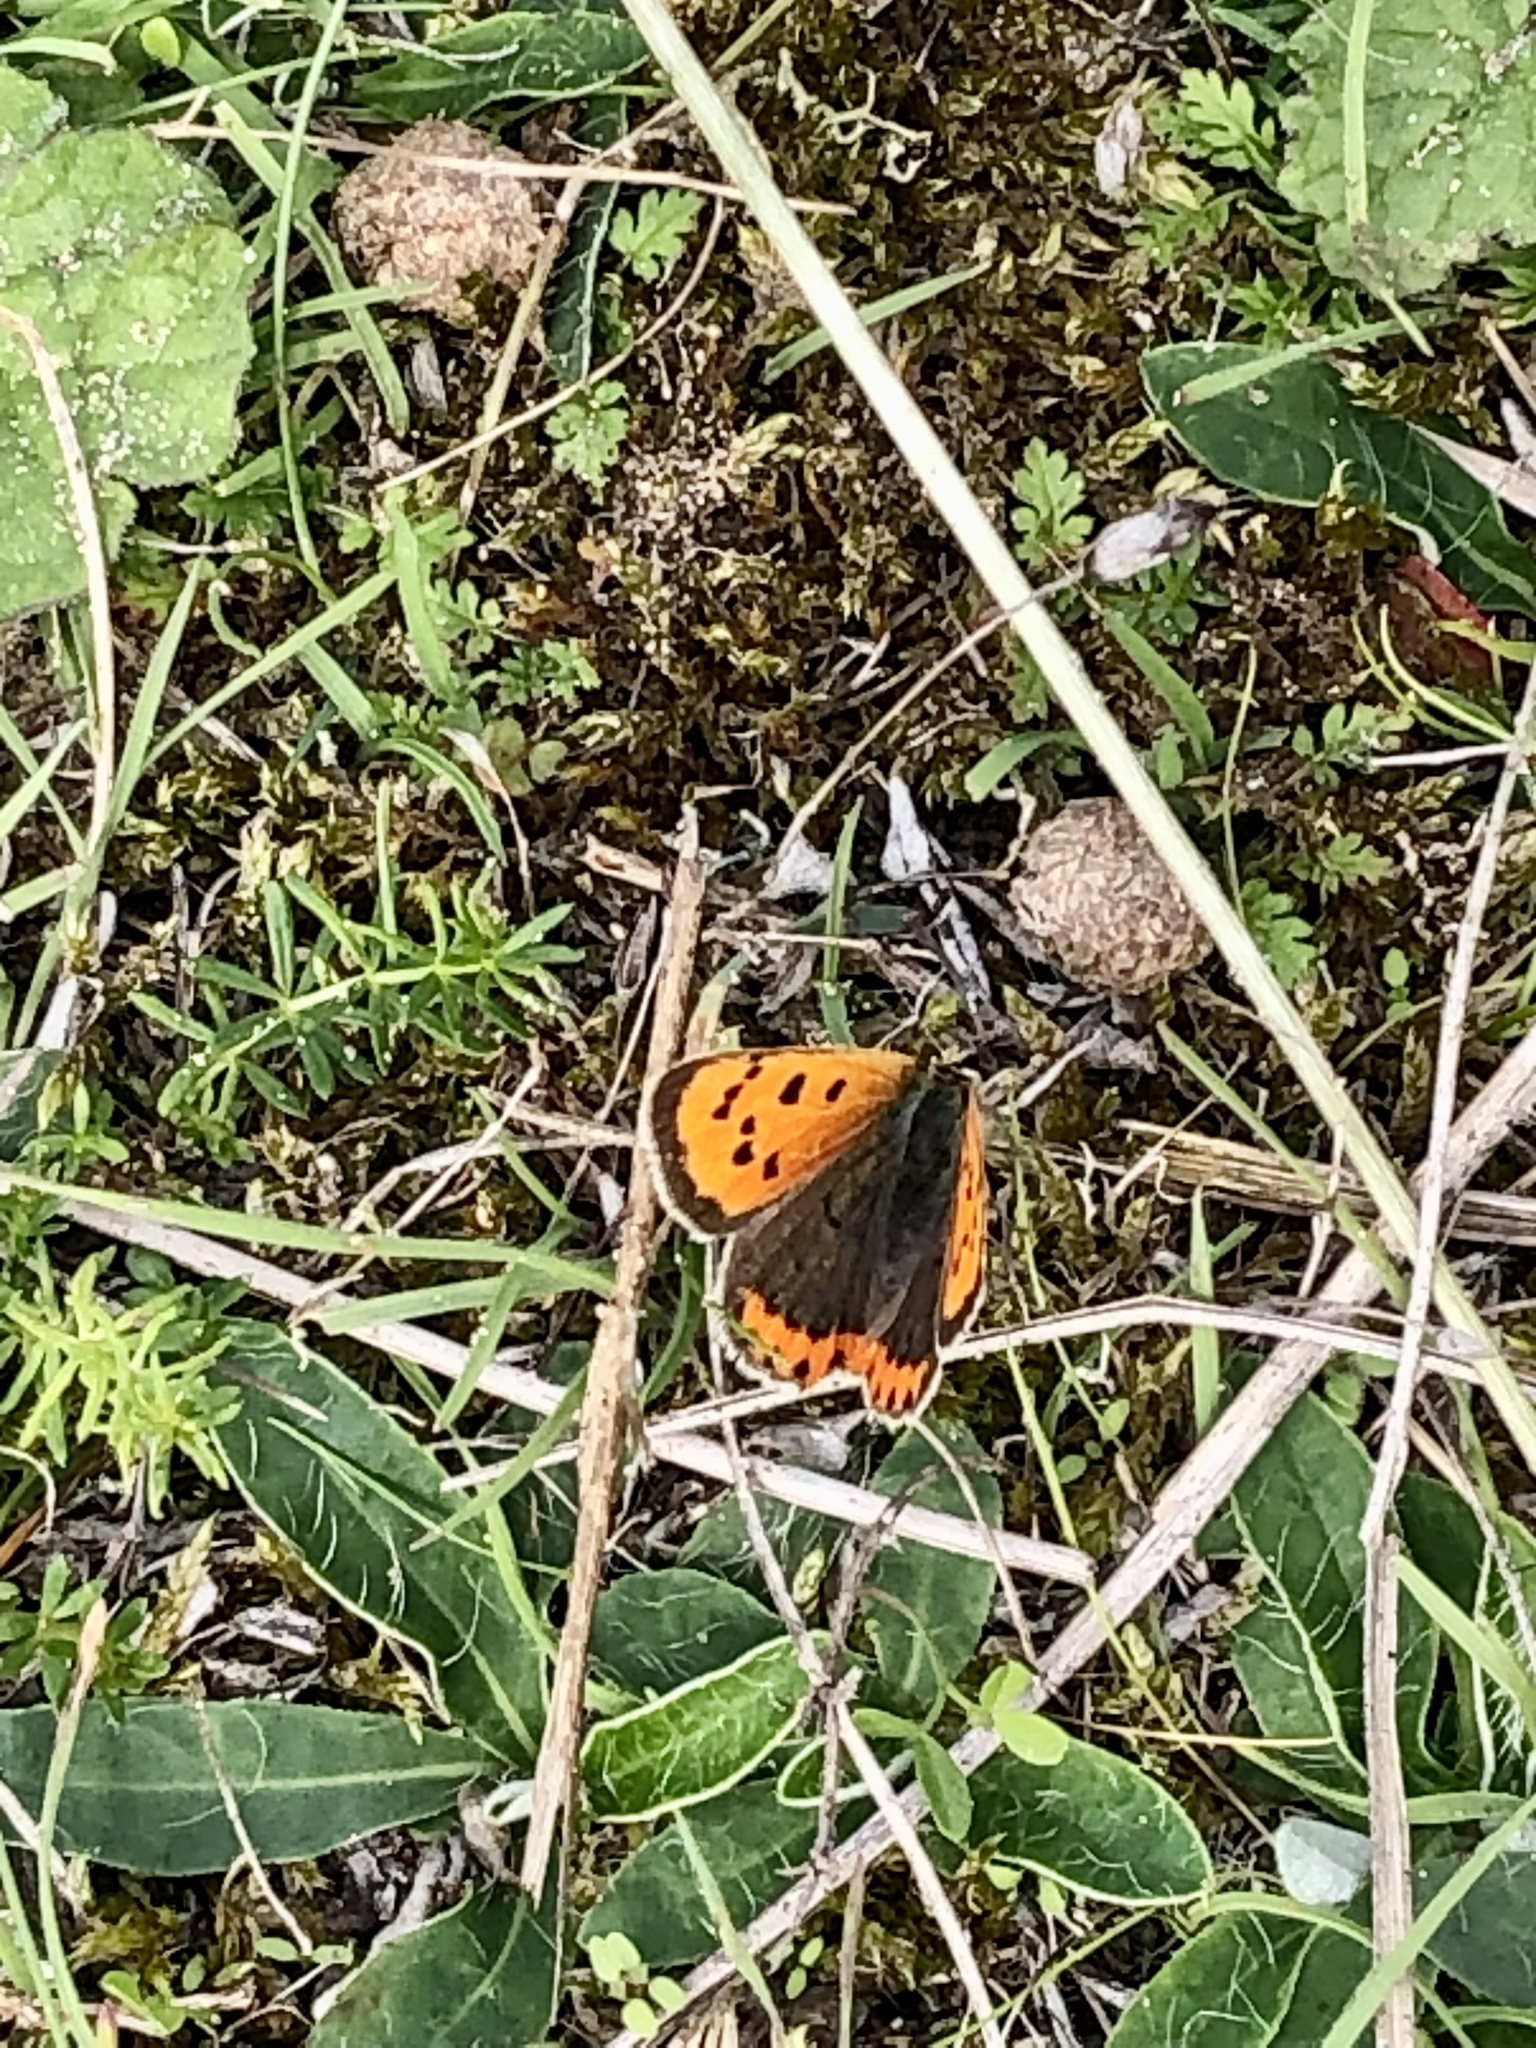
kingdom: Animalia
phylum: Arthropoda
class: Insecta
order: Lepidoptera
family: Lycaenidae
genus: Lycaena
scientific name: Lycaena phlaeas
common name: Small copper
